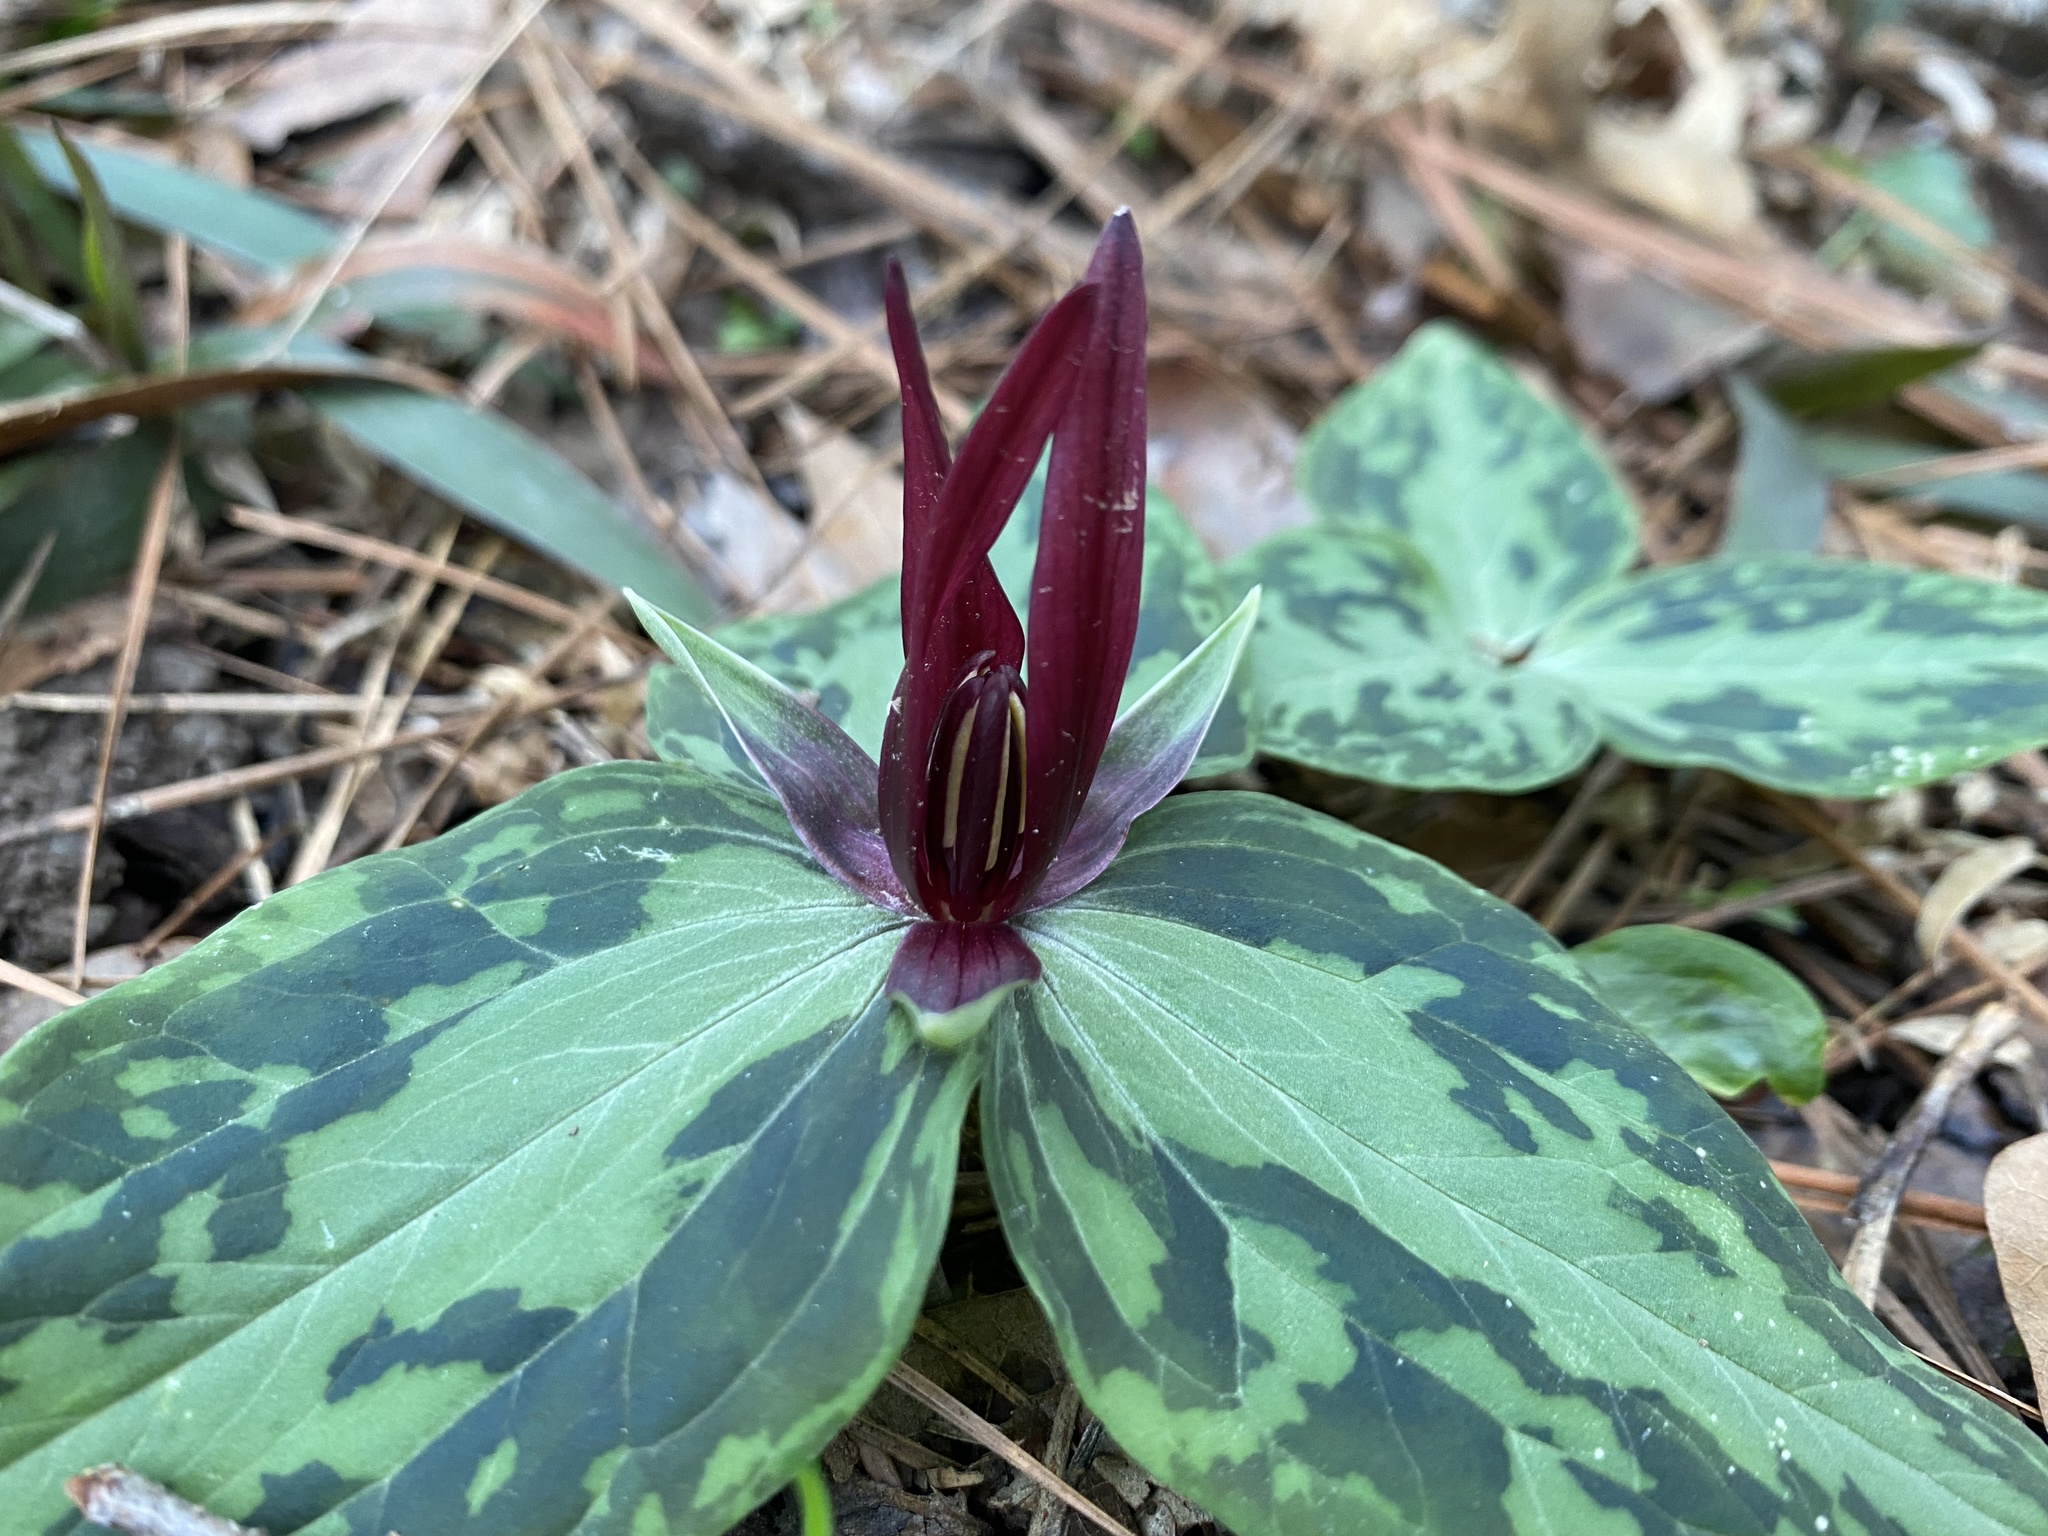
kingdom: Plantae
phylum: Tracheophyta
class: Liliopsida
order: Liliales
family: Melanthiaceae
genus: Trillium
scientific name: Trillium foetidissimum
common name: Mississippi river trillium
